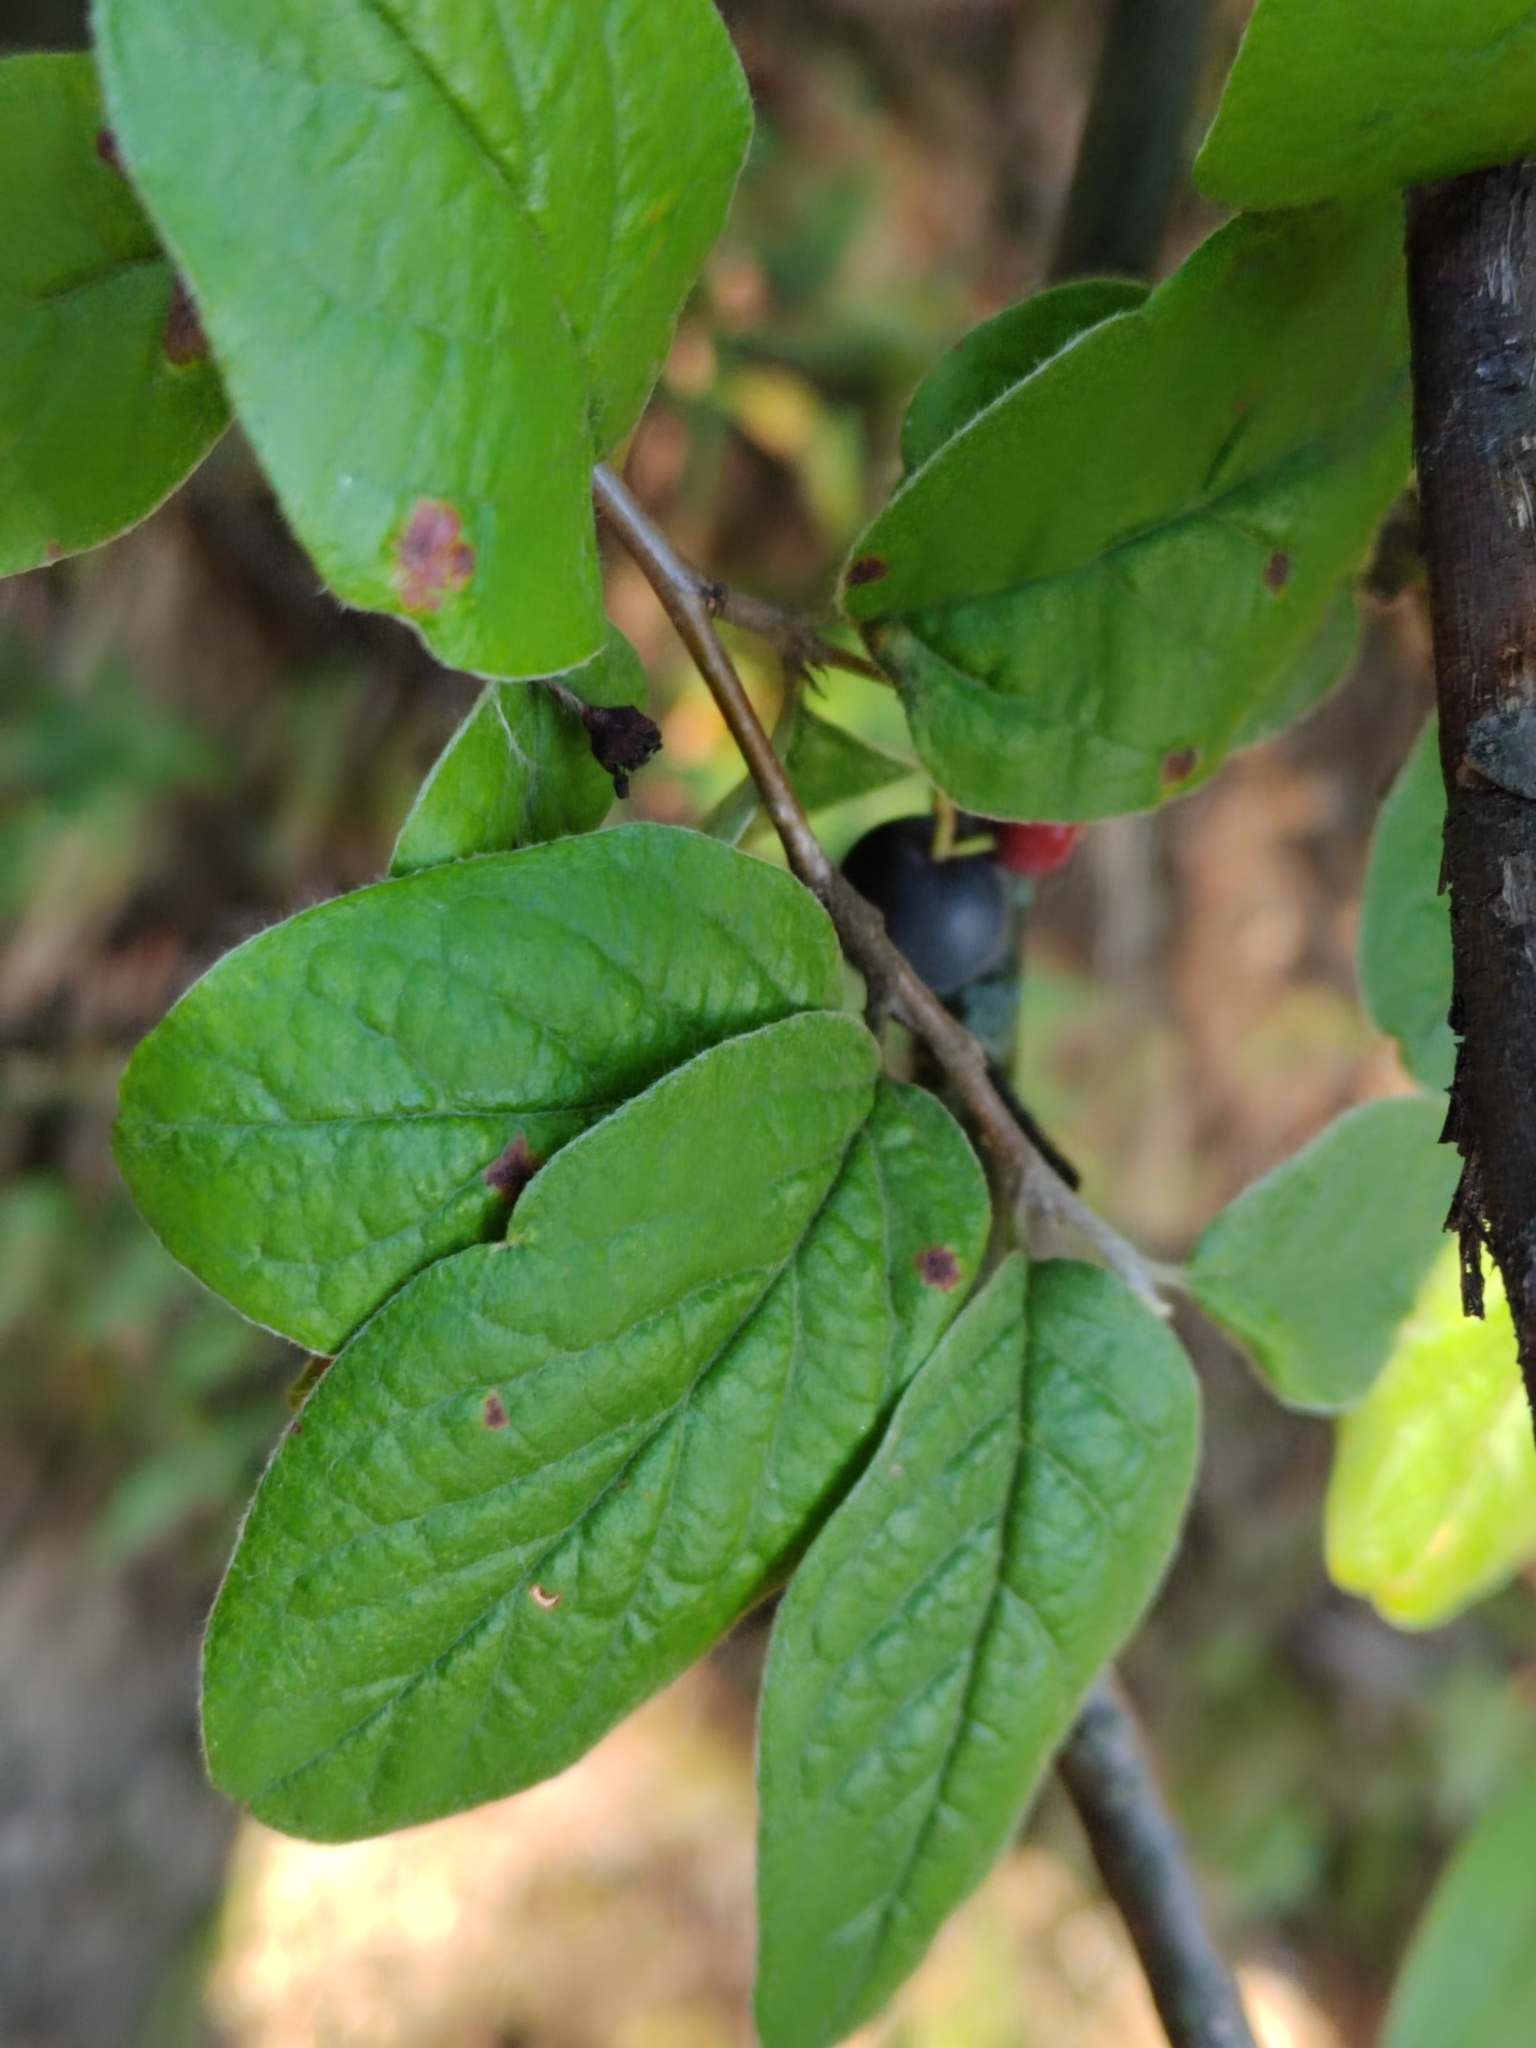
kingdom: Plantae
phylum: Tracheophyta
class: Magnoliopsida
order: Rosales
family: Rosaceae
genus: Cotoneaster
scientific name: Cotoneaster melanocarpus
